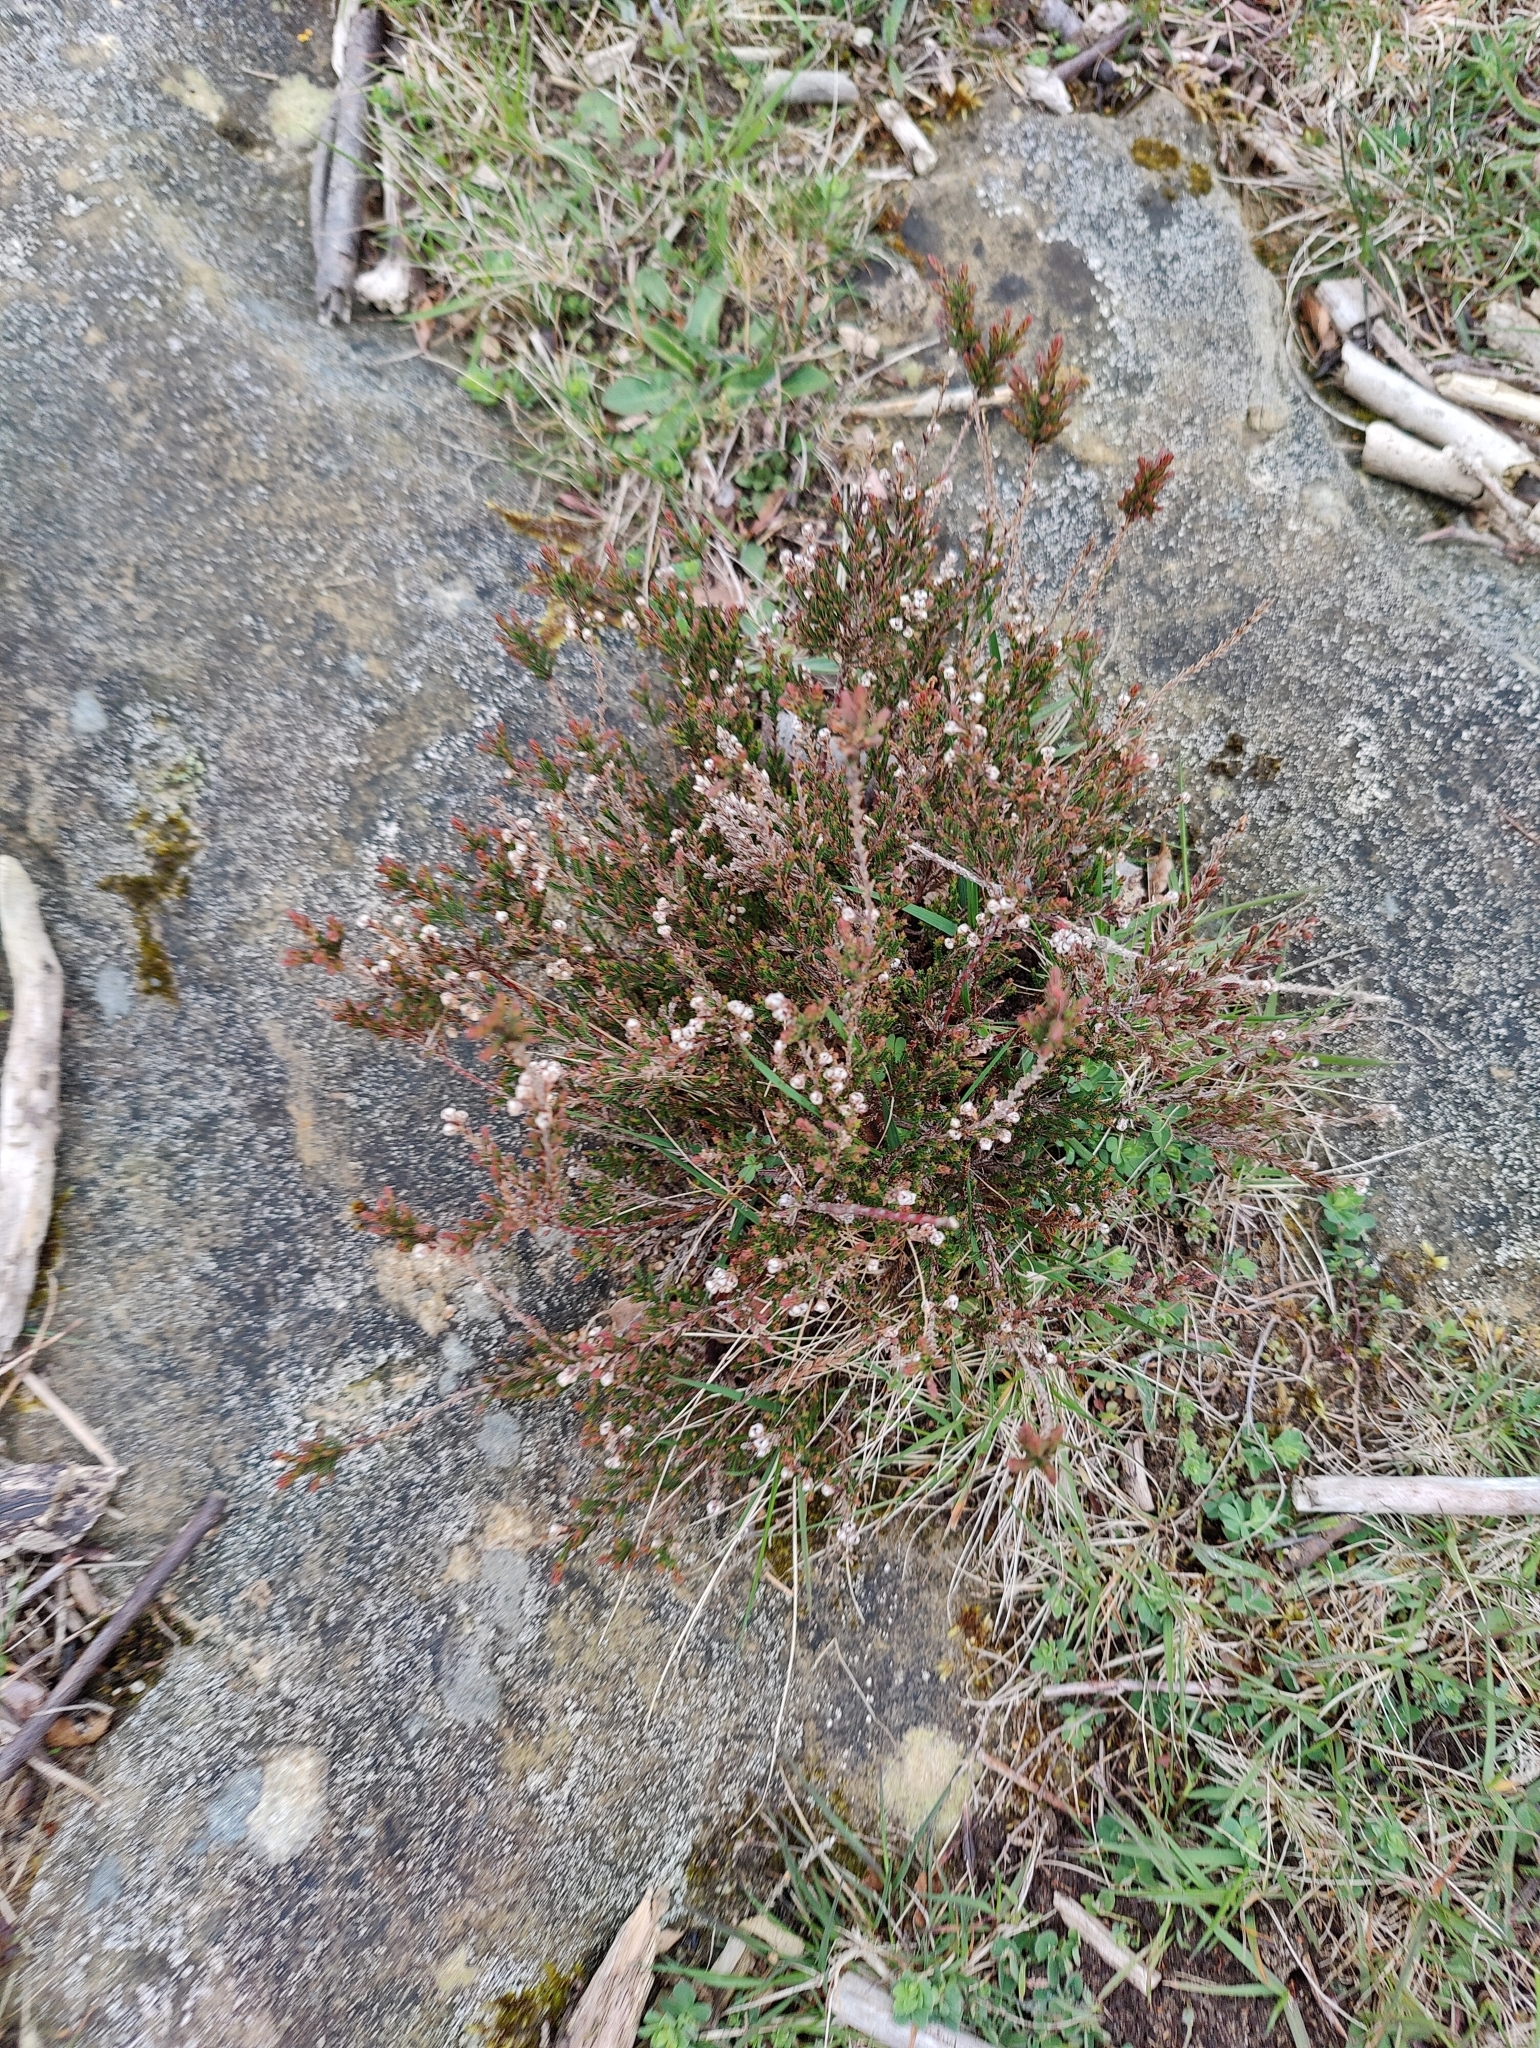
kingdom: Plantae
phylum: Tracheophyta
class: Magnoliopsida
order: Ericales
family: Ericaceae
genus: Calluna
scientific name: Calluna vulgaris
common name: Heather
